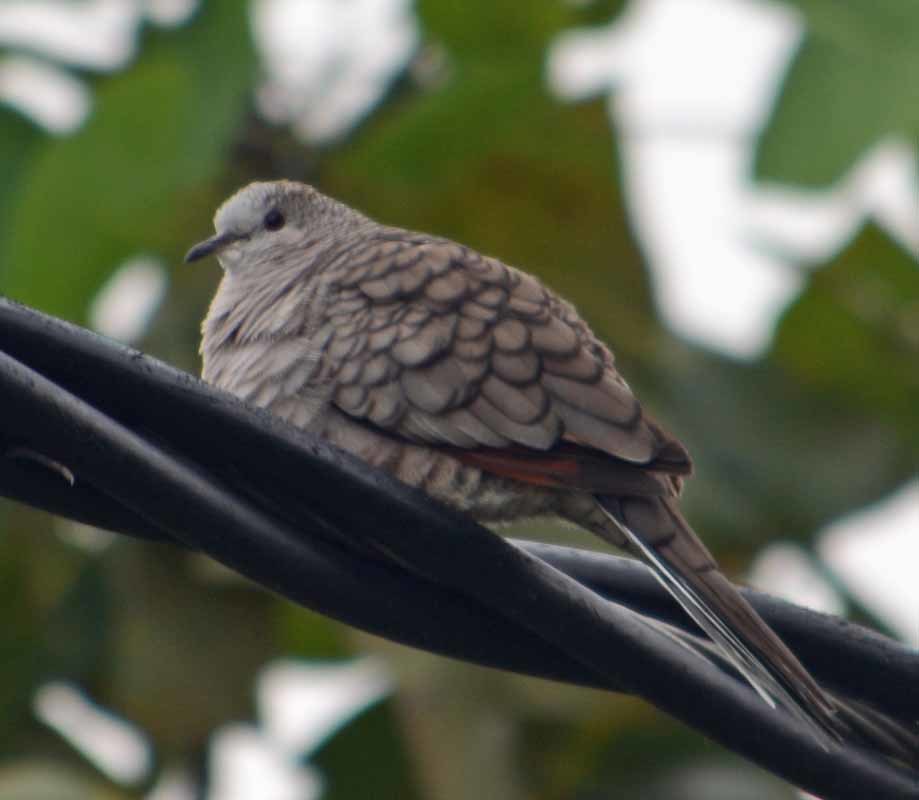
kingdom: Animalia
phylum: Chordata
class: Aves
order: Columbiformes
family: Columbidae
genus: Columbina
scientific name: Columbina inca
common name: Inca dove
